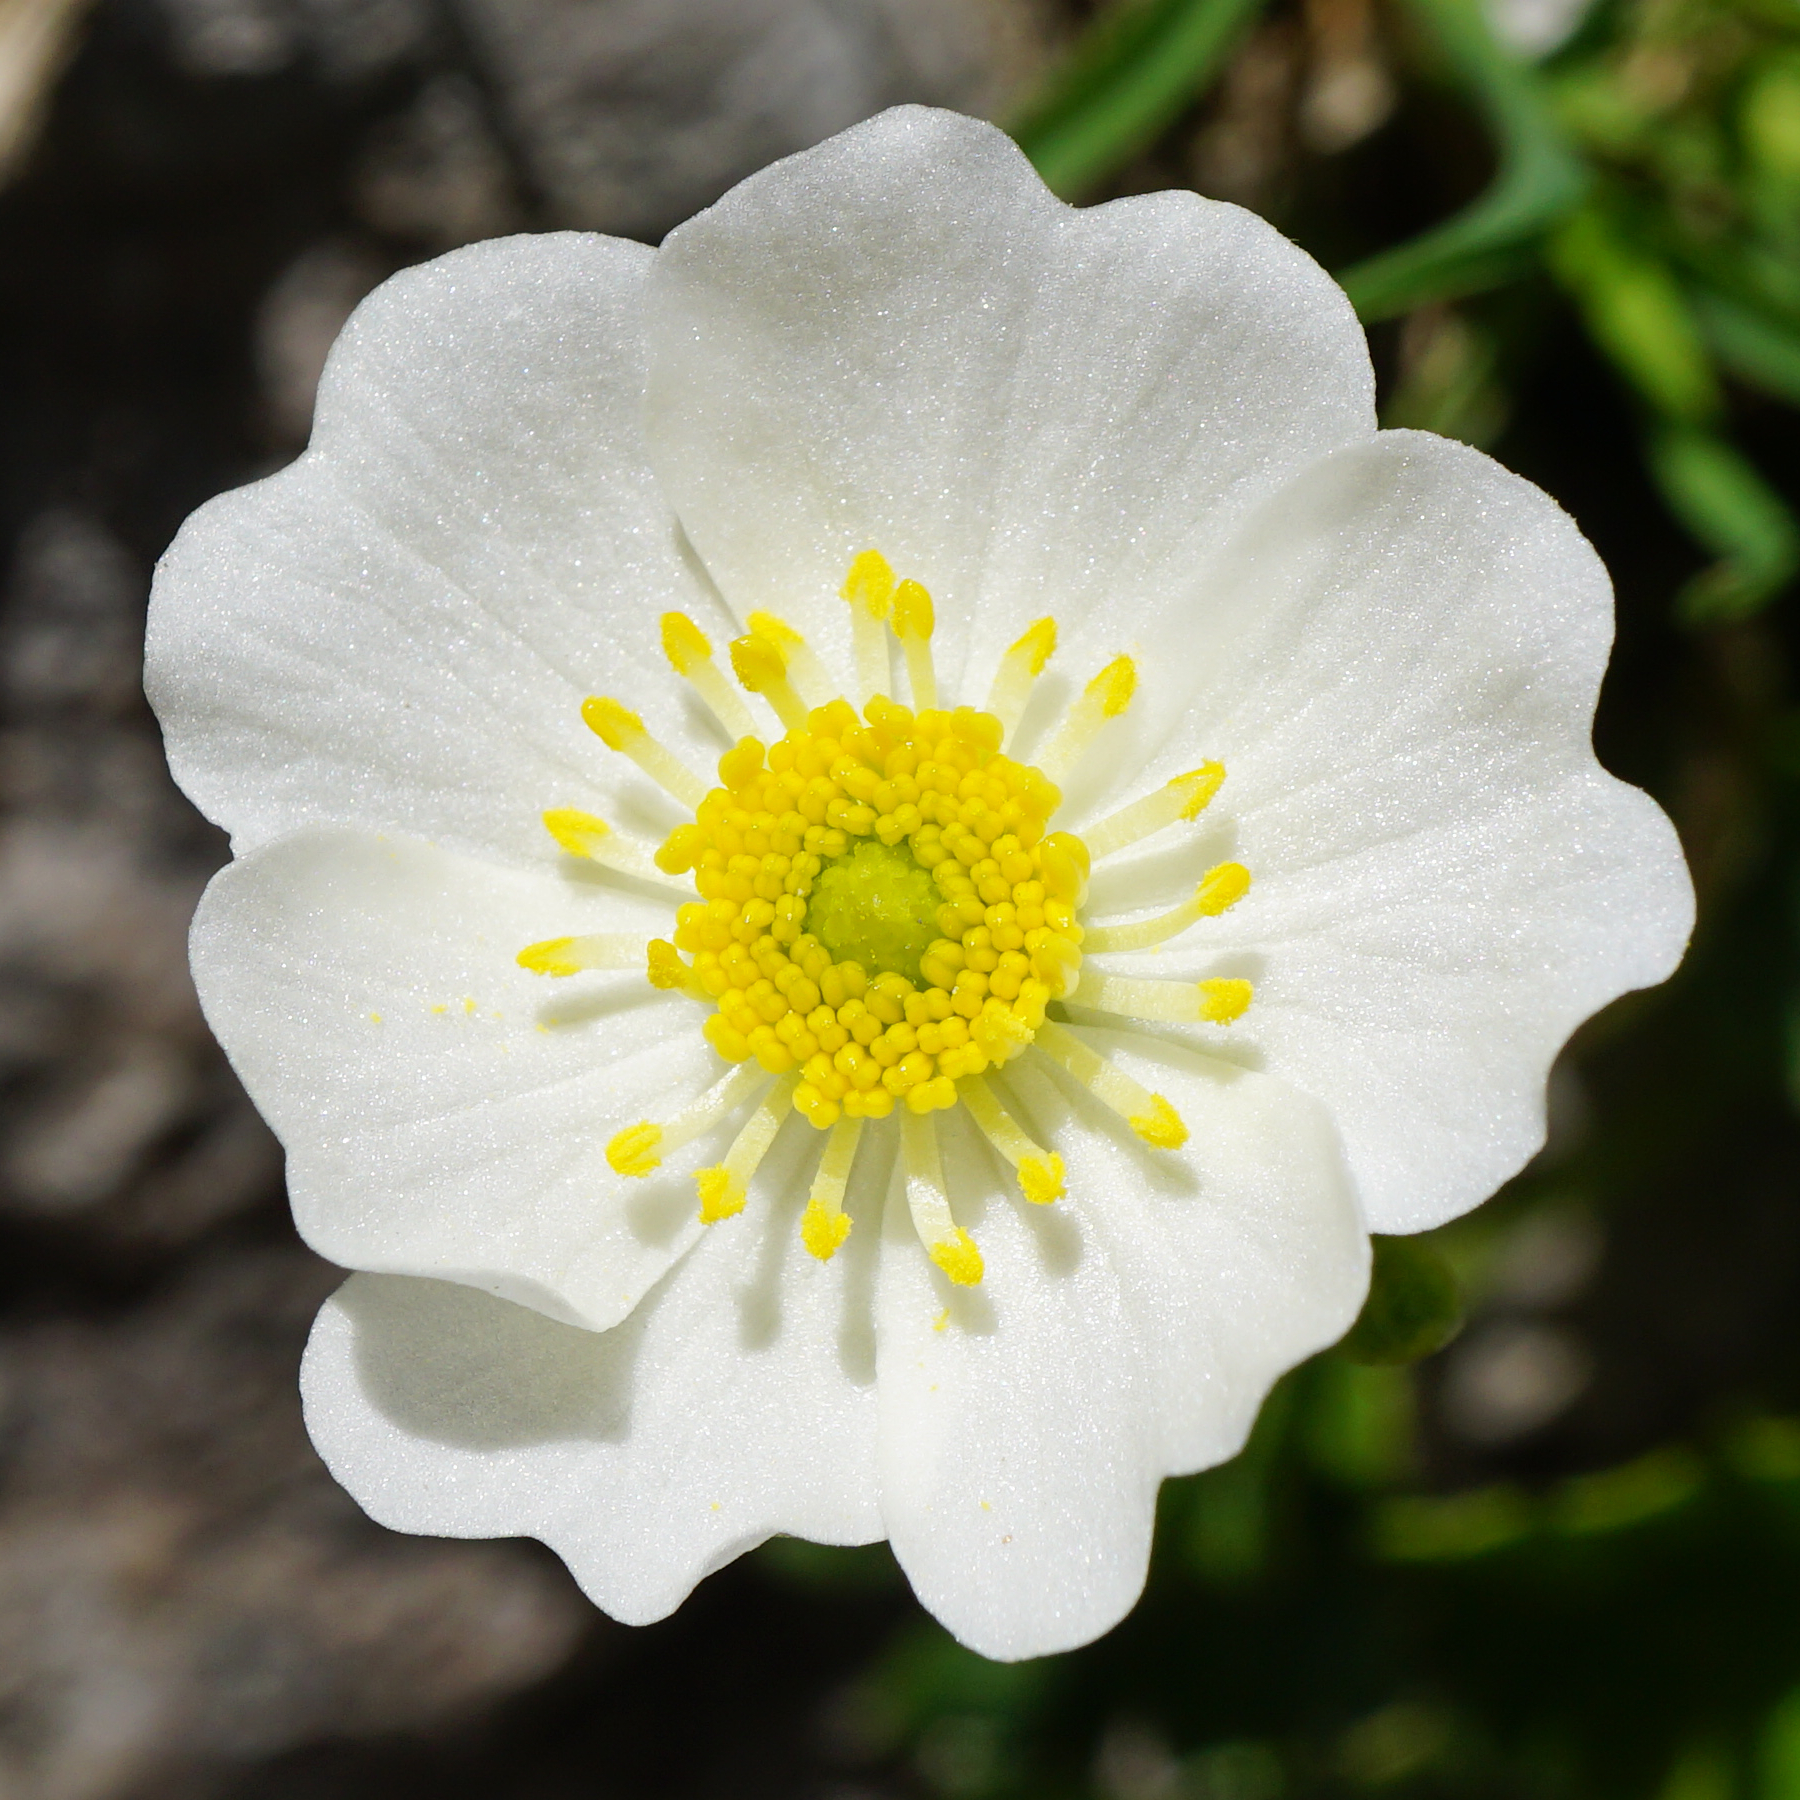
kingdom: Plantae
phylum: Tracheophyta
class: Magnoliopsida
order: Ranunculales
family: Ranunculaceae
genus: Ranunculus
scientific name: Ranunculus alpestris
